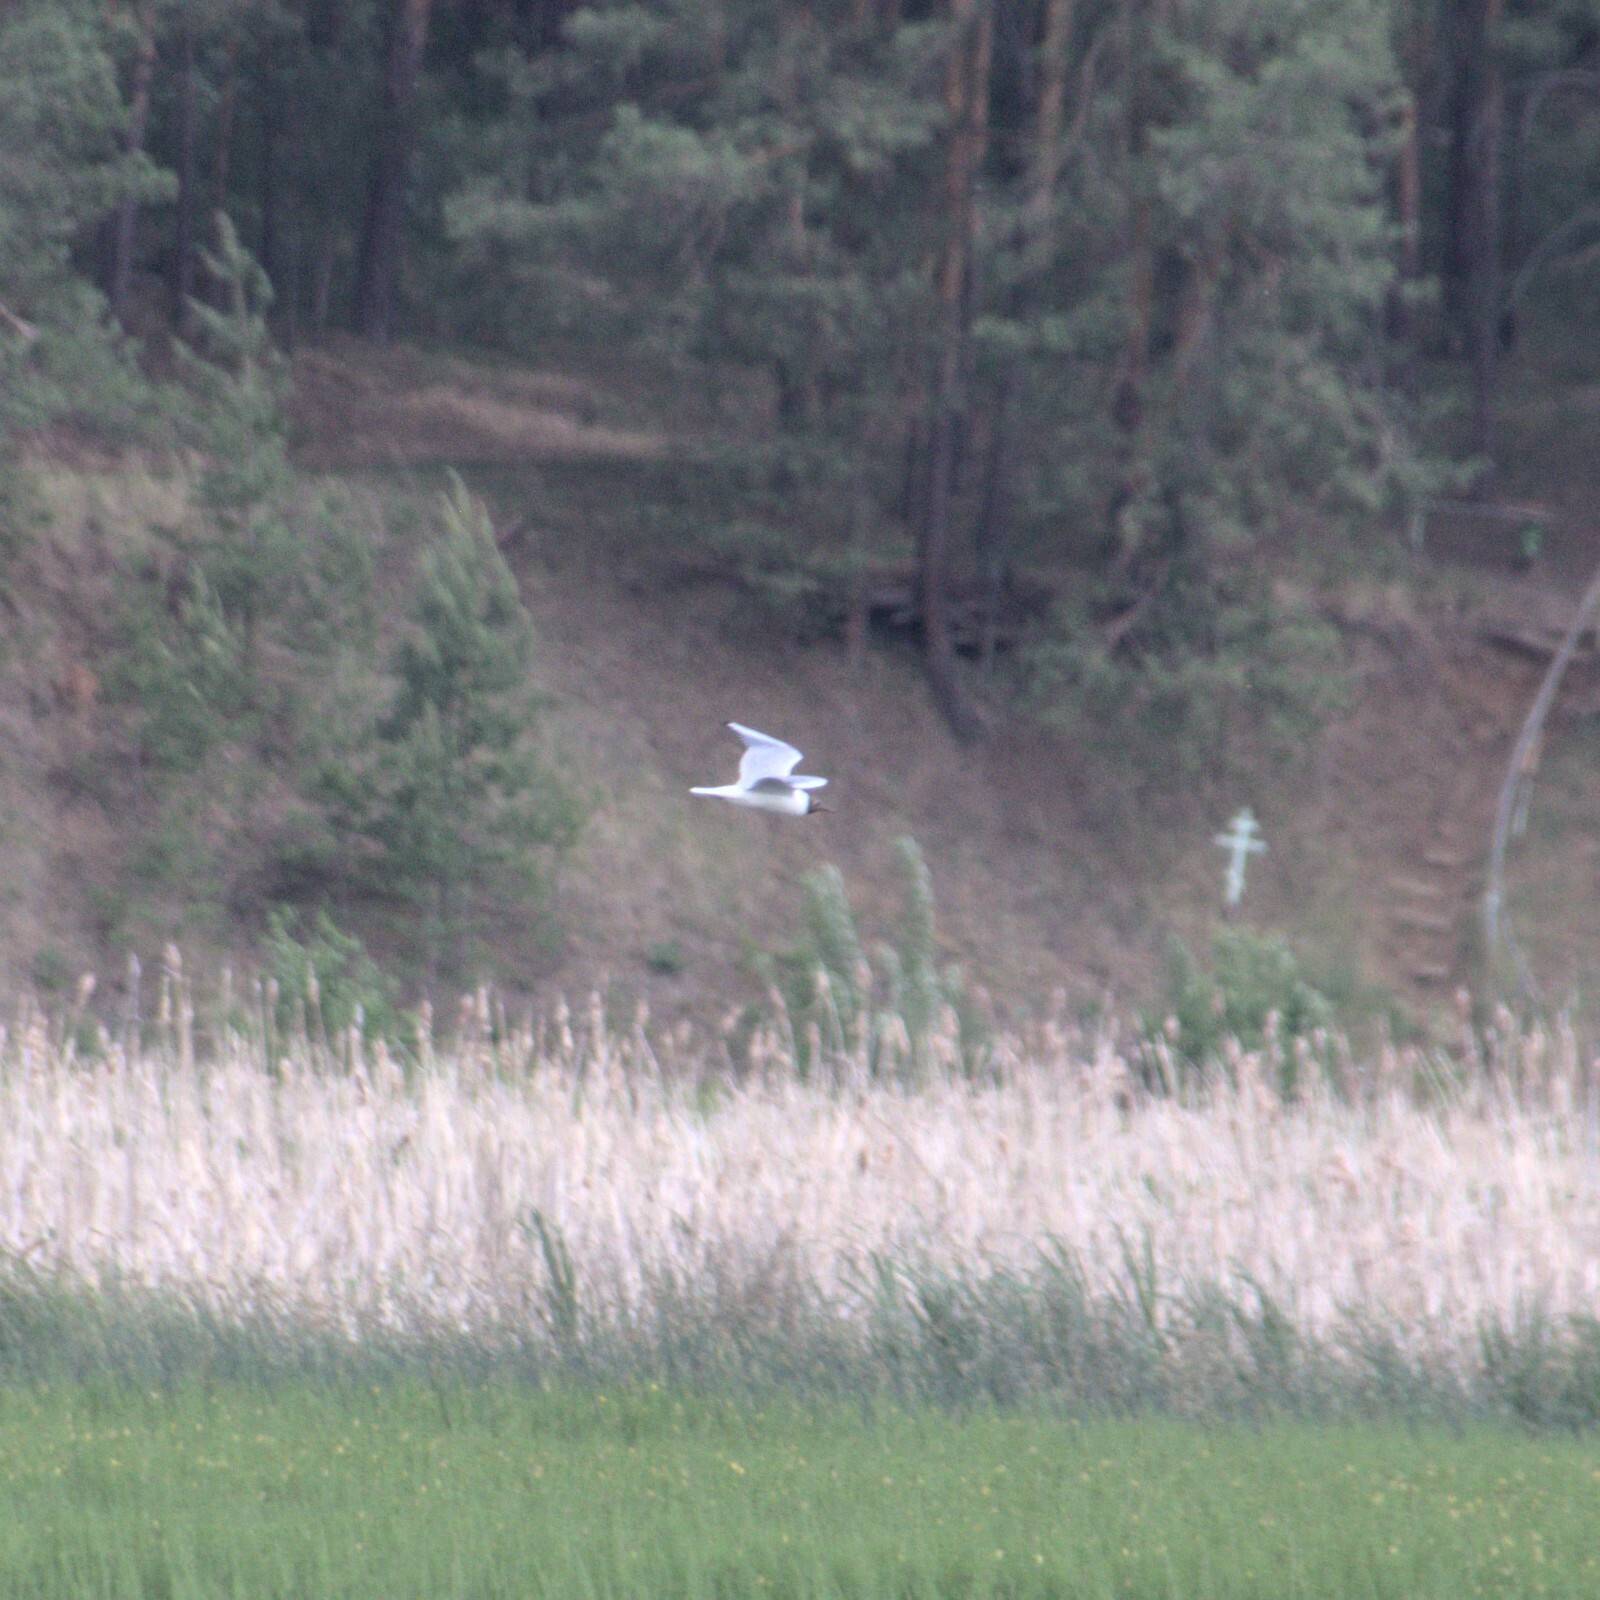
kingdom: Animalia
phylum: Chordata
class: Aves
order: Charadriiformes
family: Laridae
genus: Chroicocephalus
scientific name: Chroicocephalus ridibundus
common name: Black-headed gull
